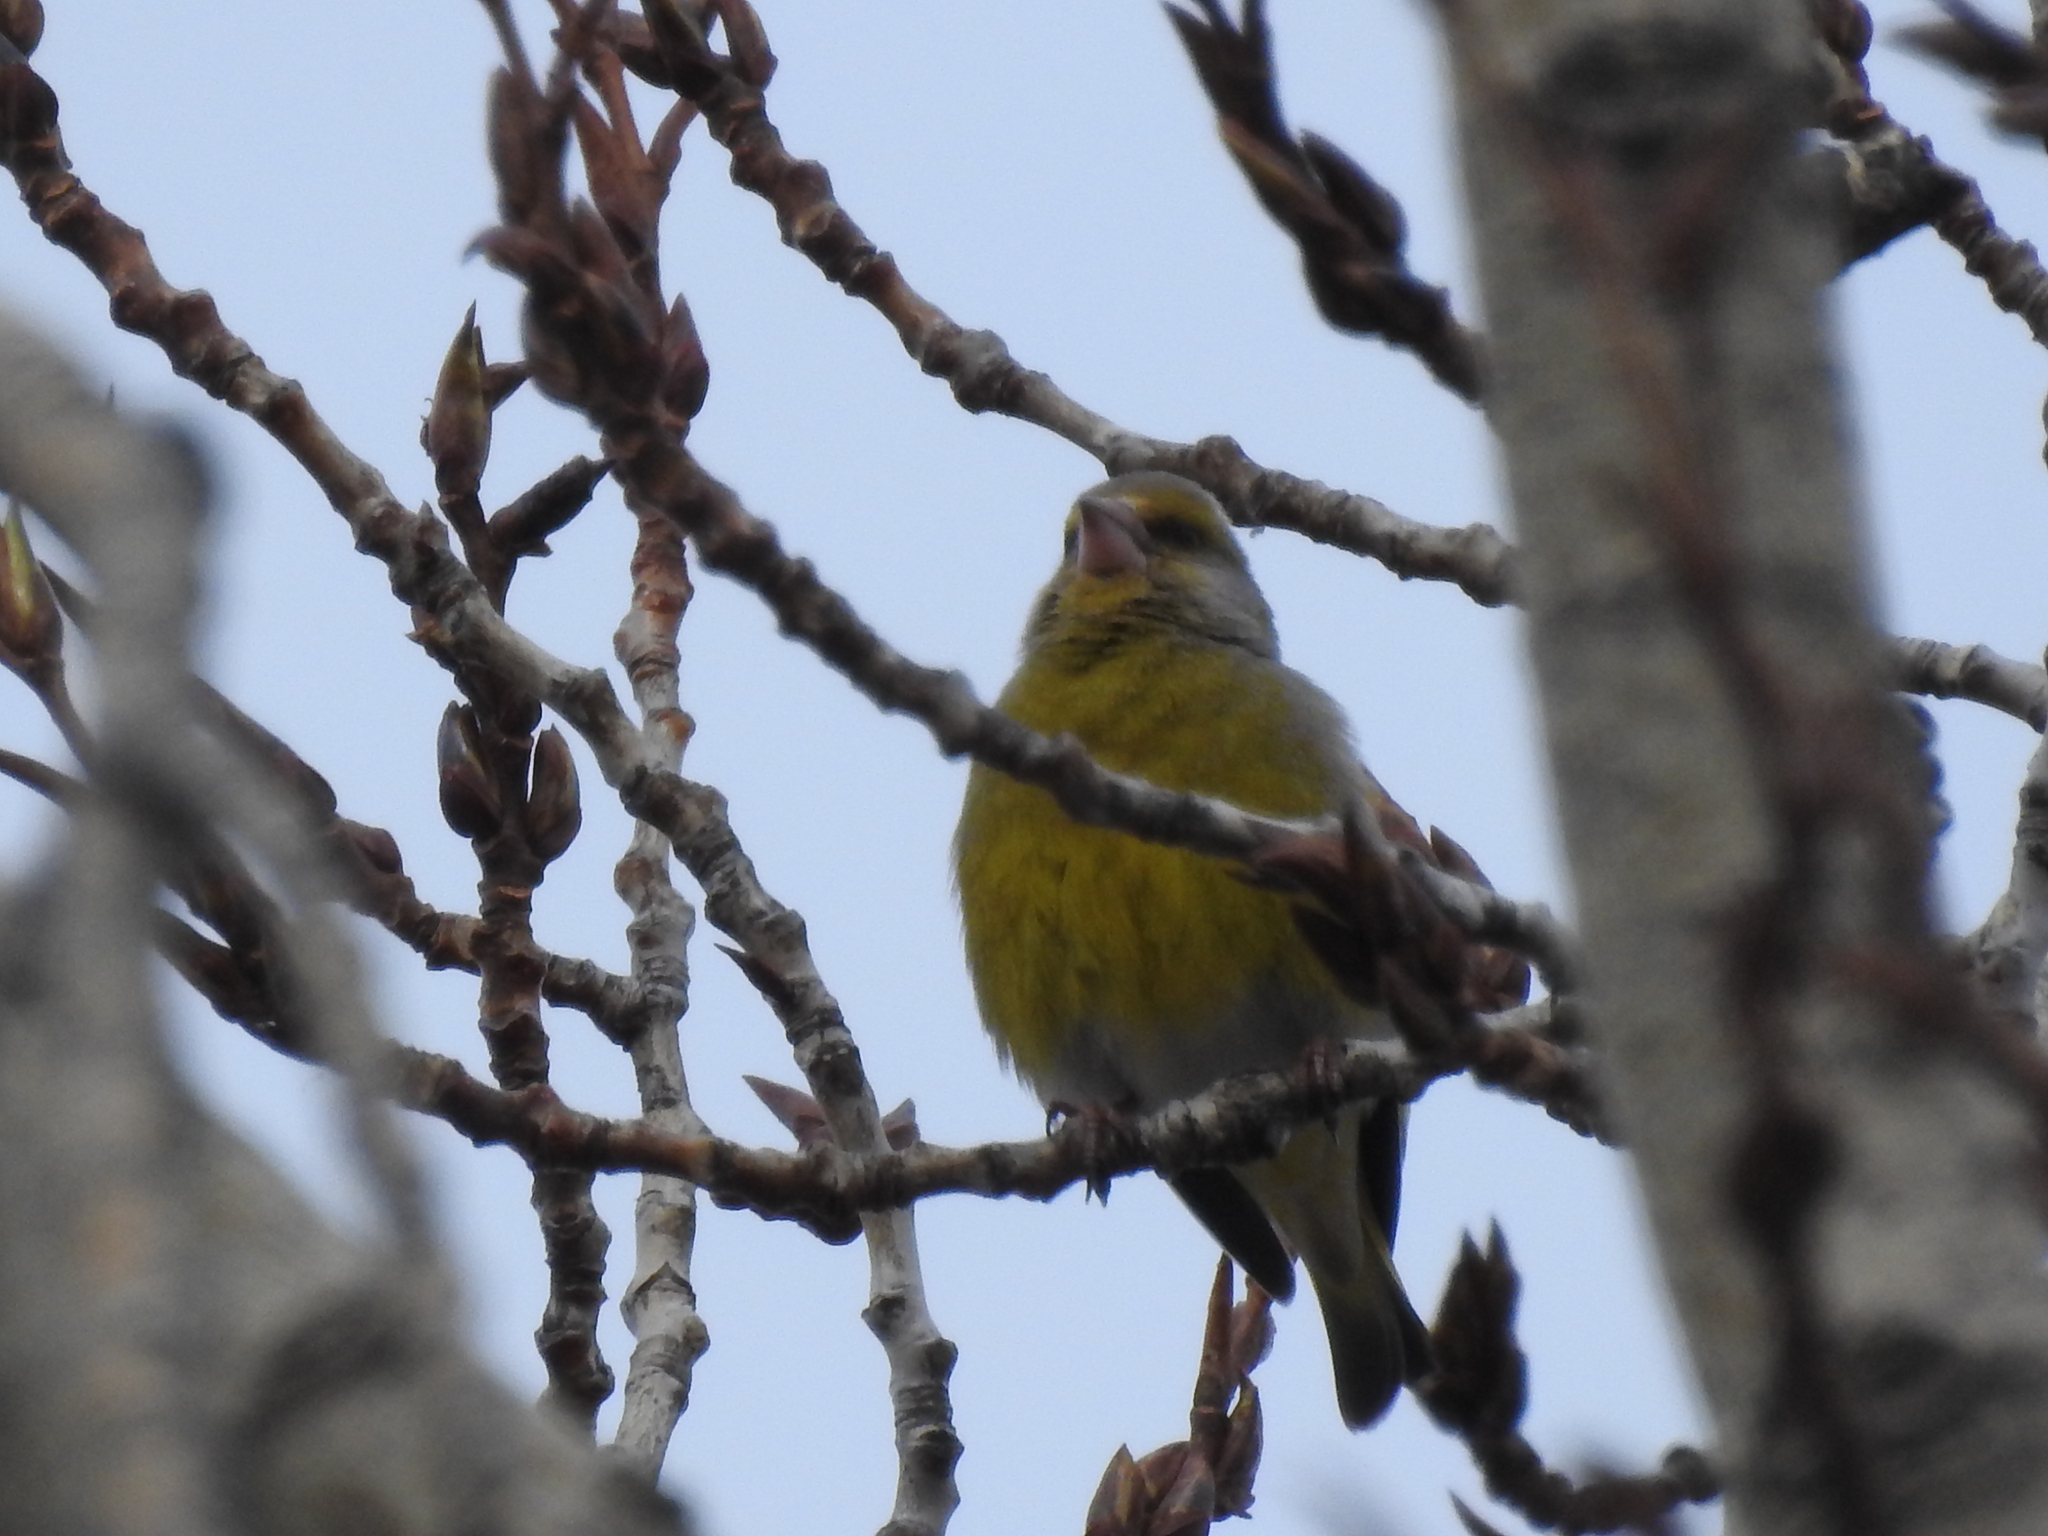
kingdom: Plantae
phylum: Tracheophyta
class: Liliopsida
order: Poales
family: Poaceae
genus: Chloris
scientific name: Chloris chloris
